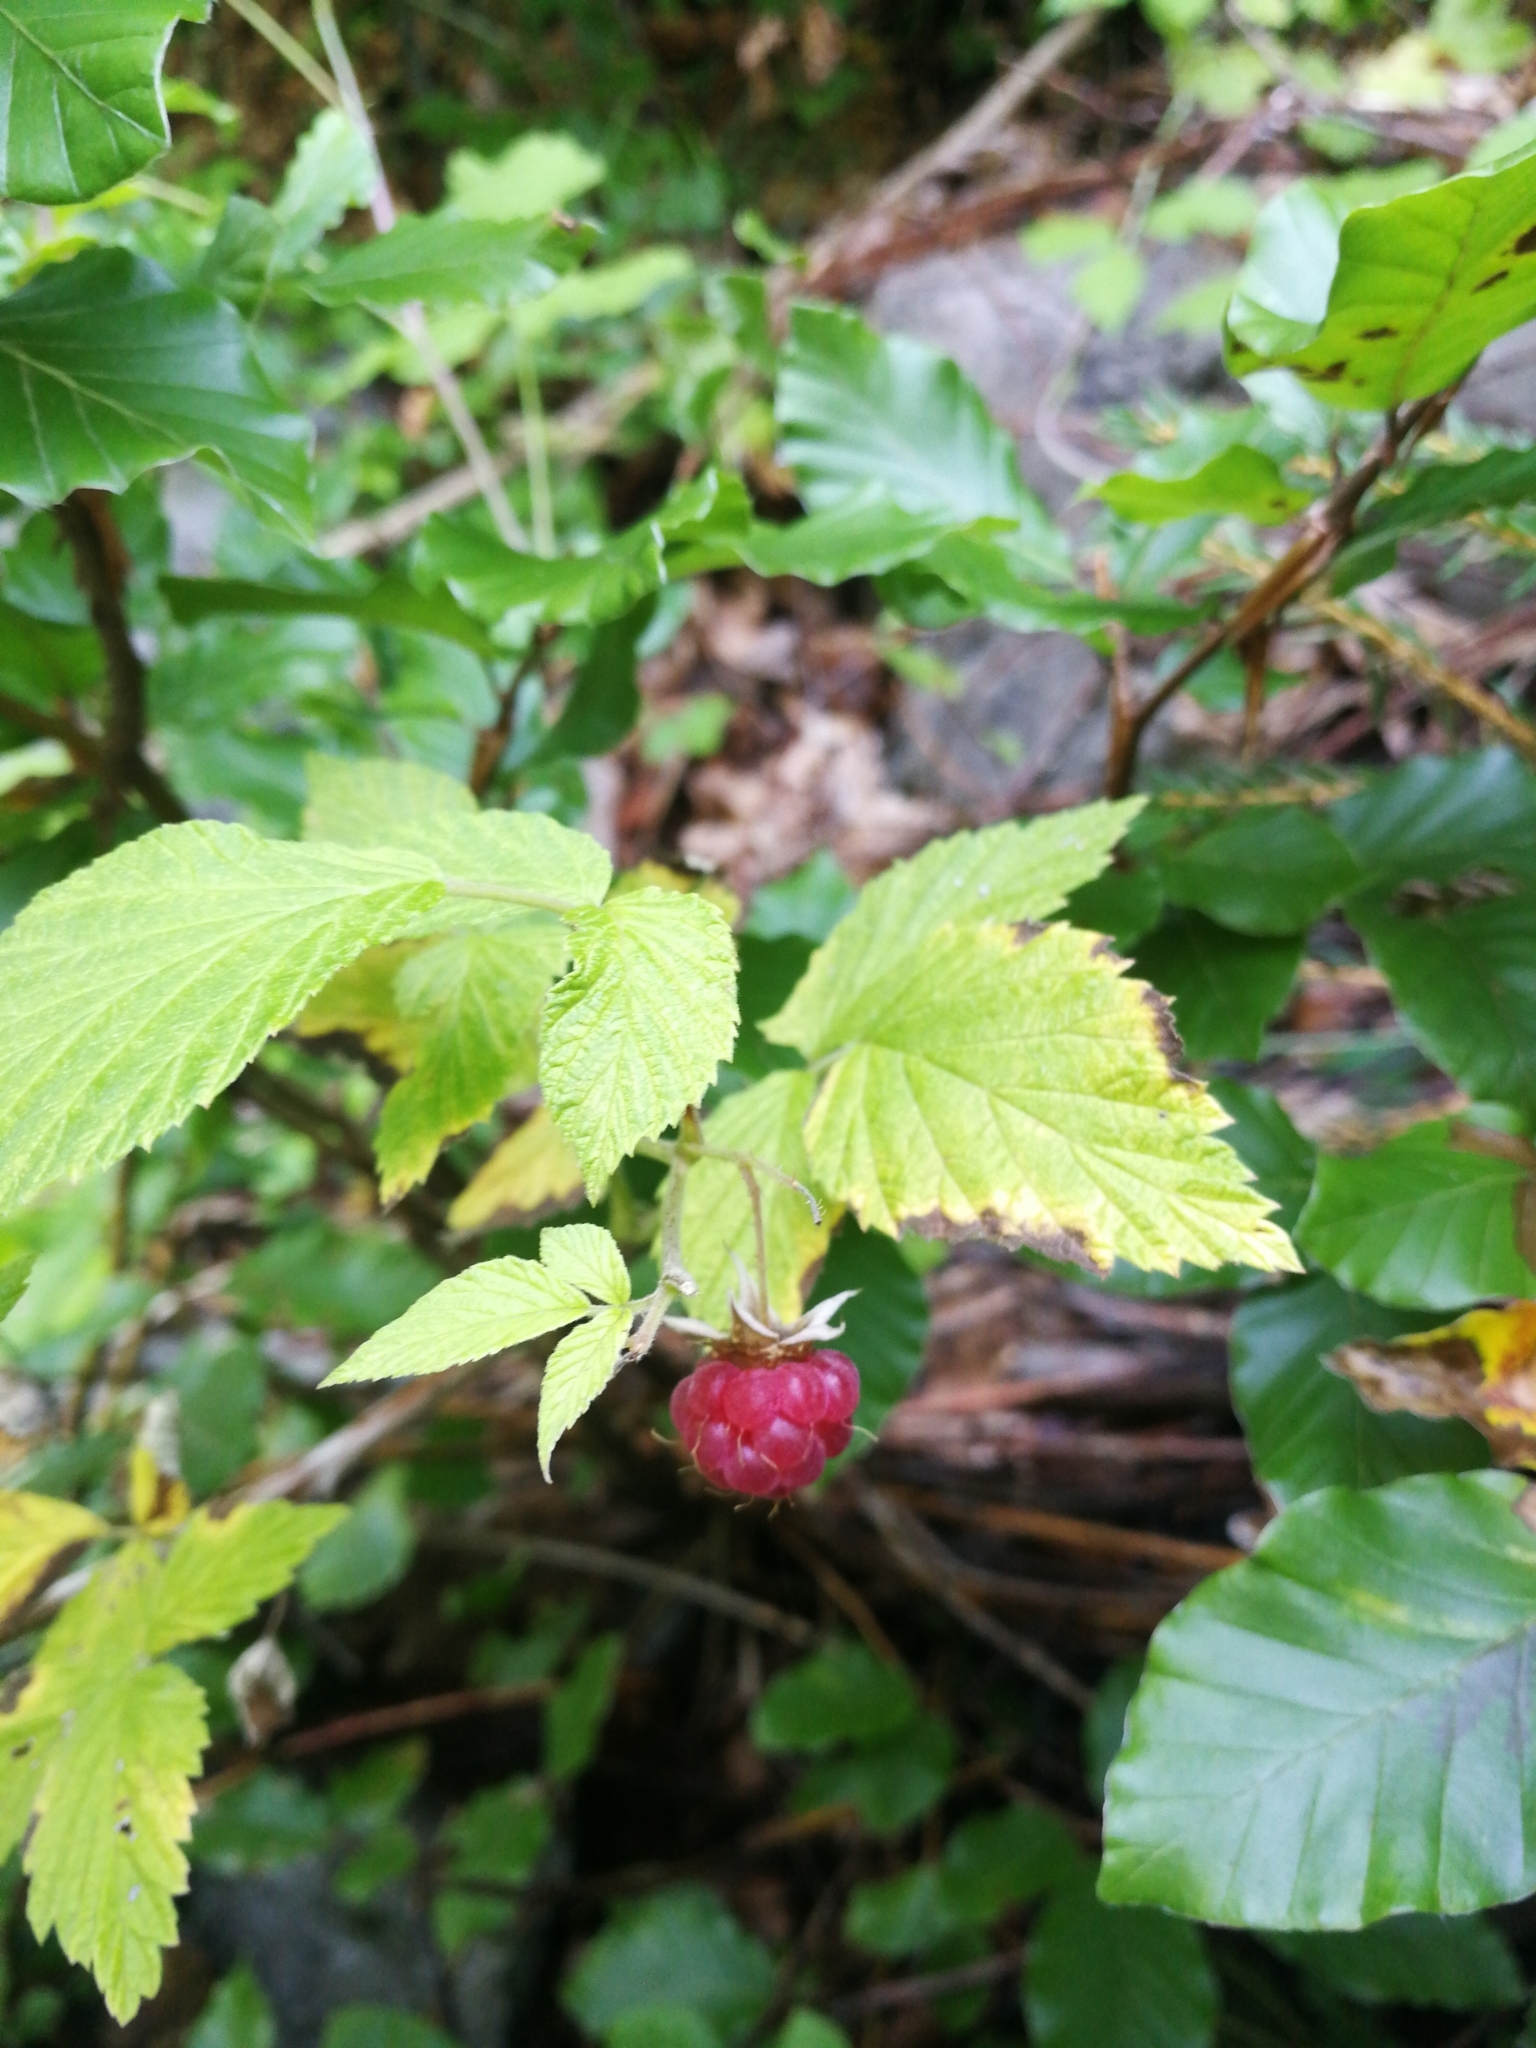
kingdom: Plantae
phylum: Tracheophyta
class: Magnoliopsida
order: Rosales
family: Rosaceae
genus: Rubus
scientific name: Rubus idaeus
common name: Raspberry
